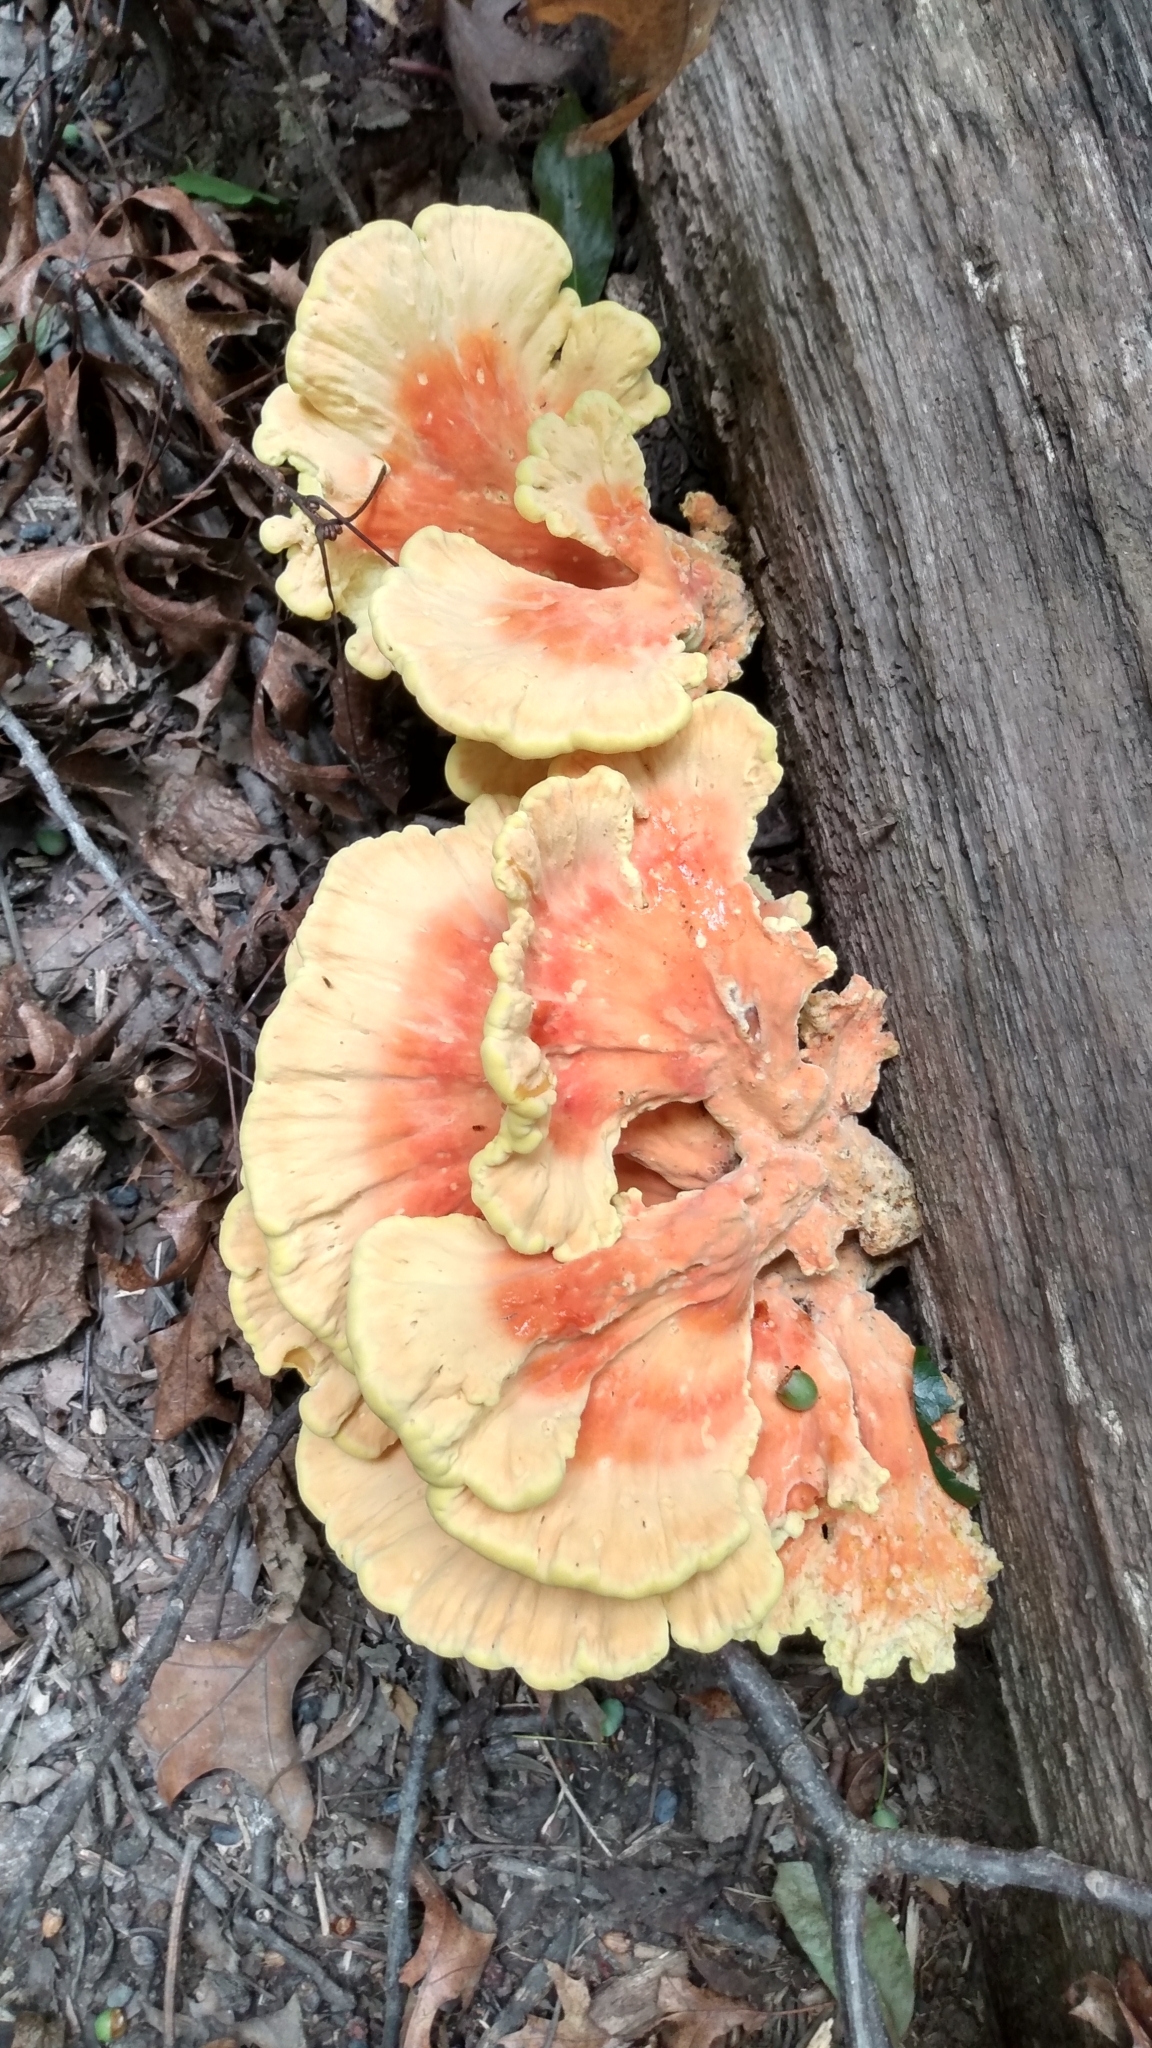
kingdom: Fungi
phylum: Basidiomycota
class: Agaricomycetes
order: Polyporales
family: Laetiporaceae
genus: Laetiporus
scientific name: Laetiporus sulphureus
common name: Chicken of the woods
